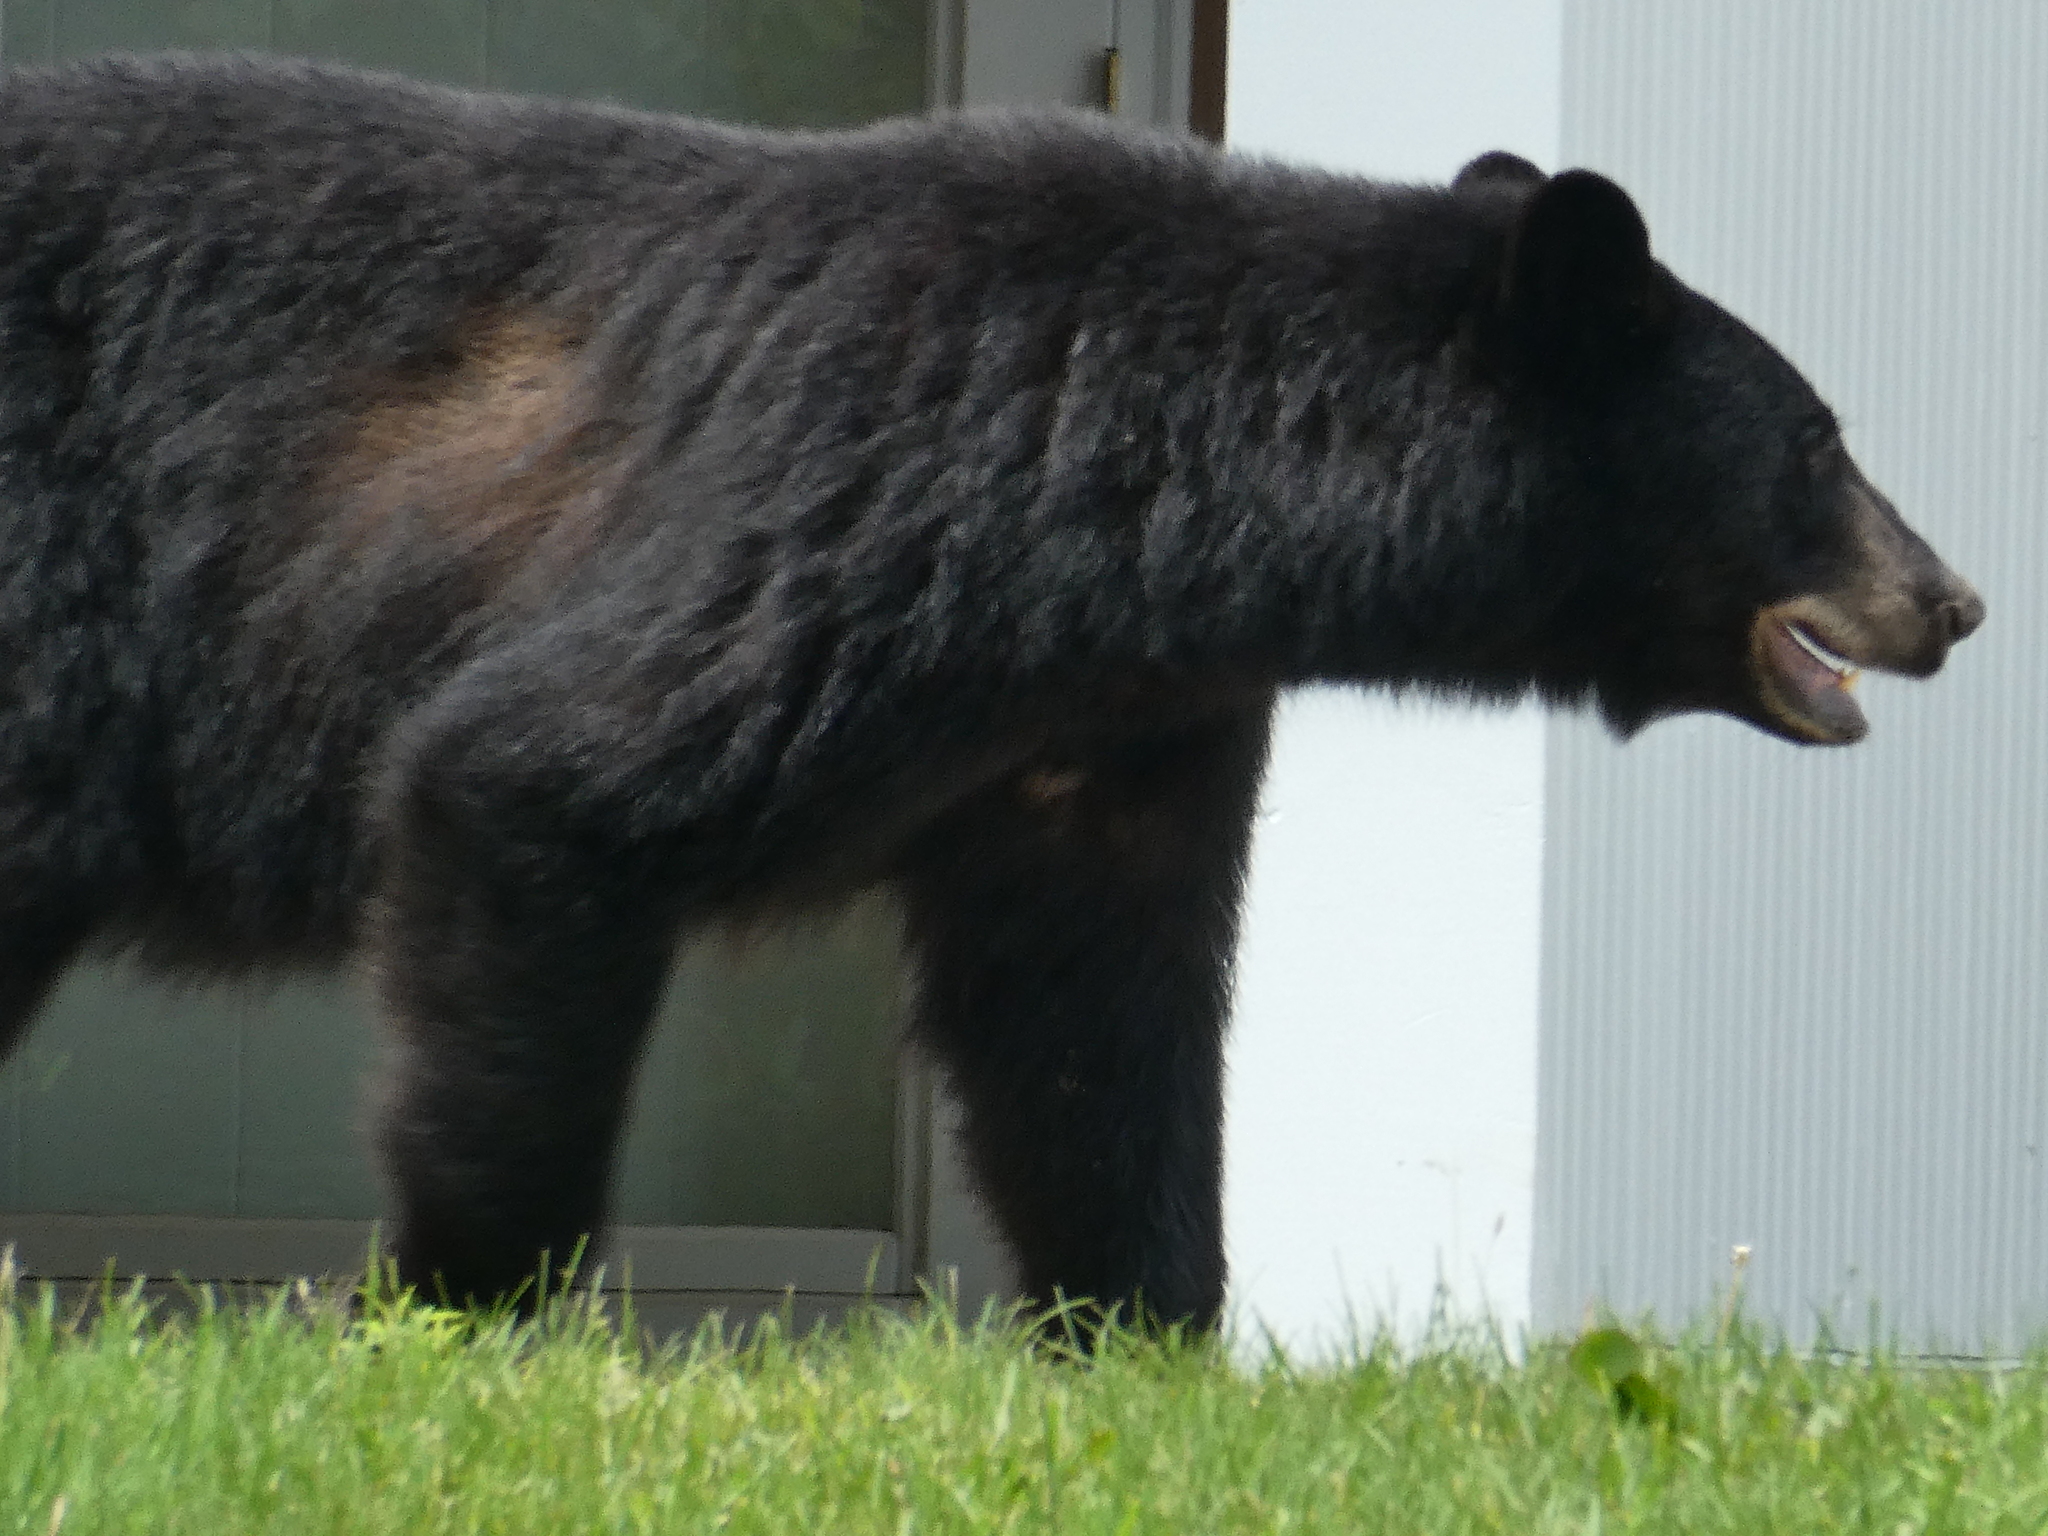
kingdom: Animalia
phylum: Chordata
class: Mammalia
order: Carnivora
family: Ursidae
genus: Ursus
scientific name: Ursus americanus
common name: American black bear
